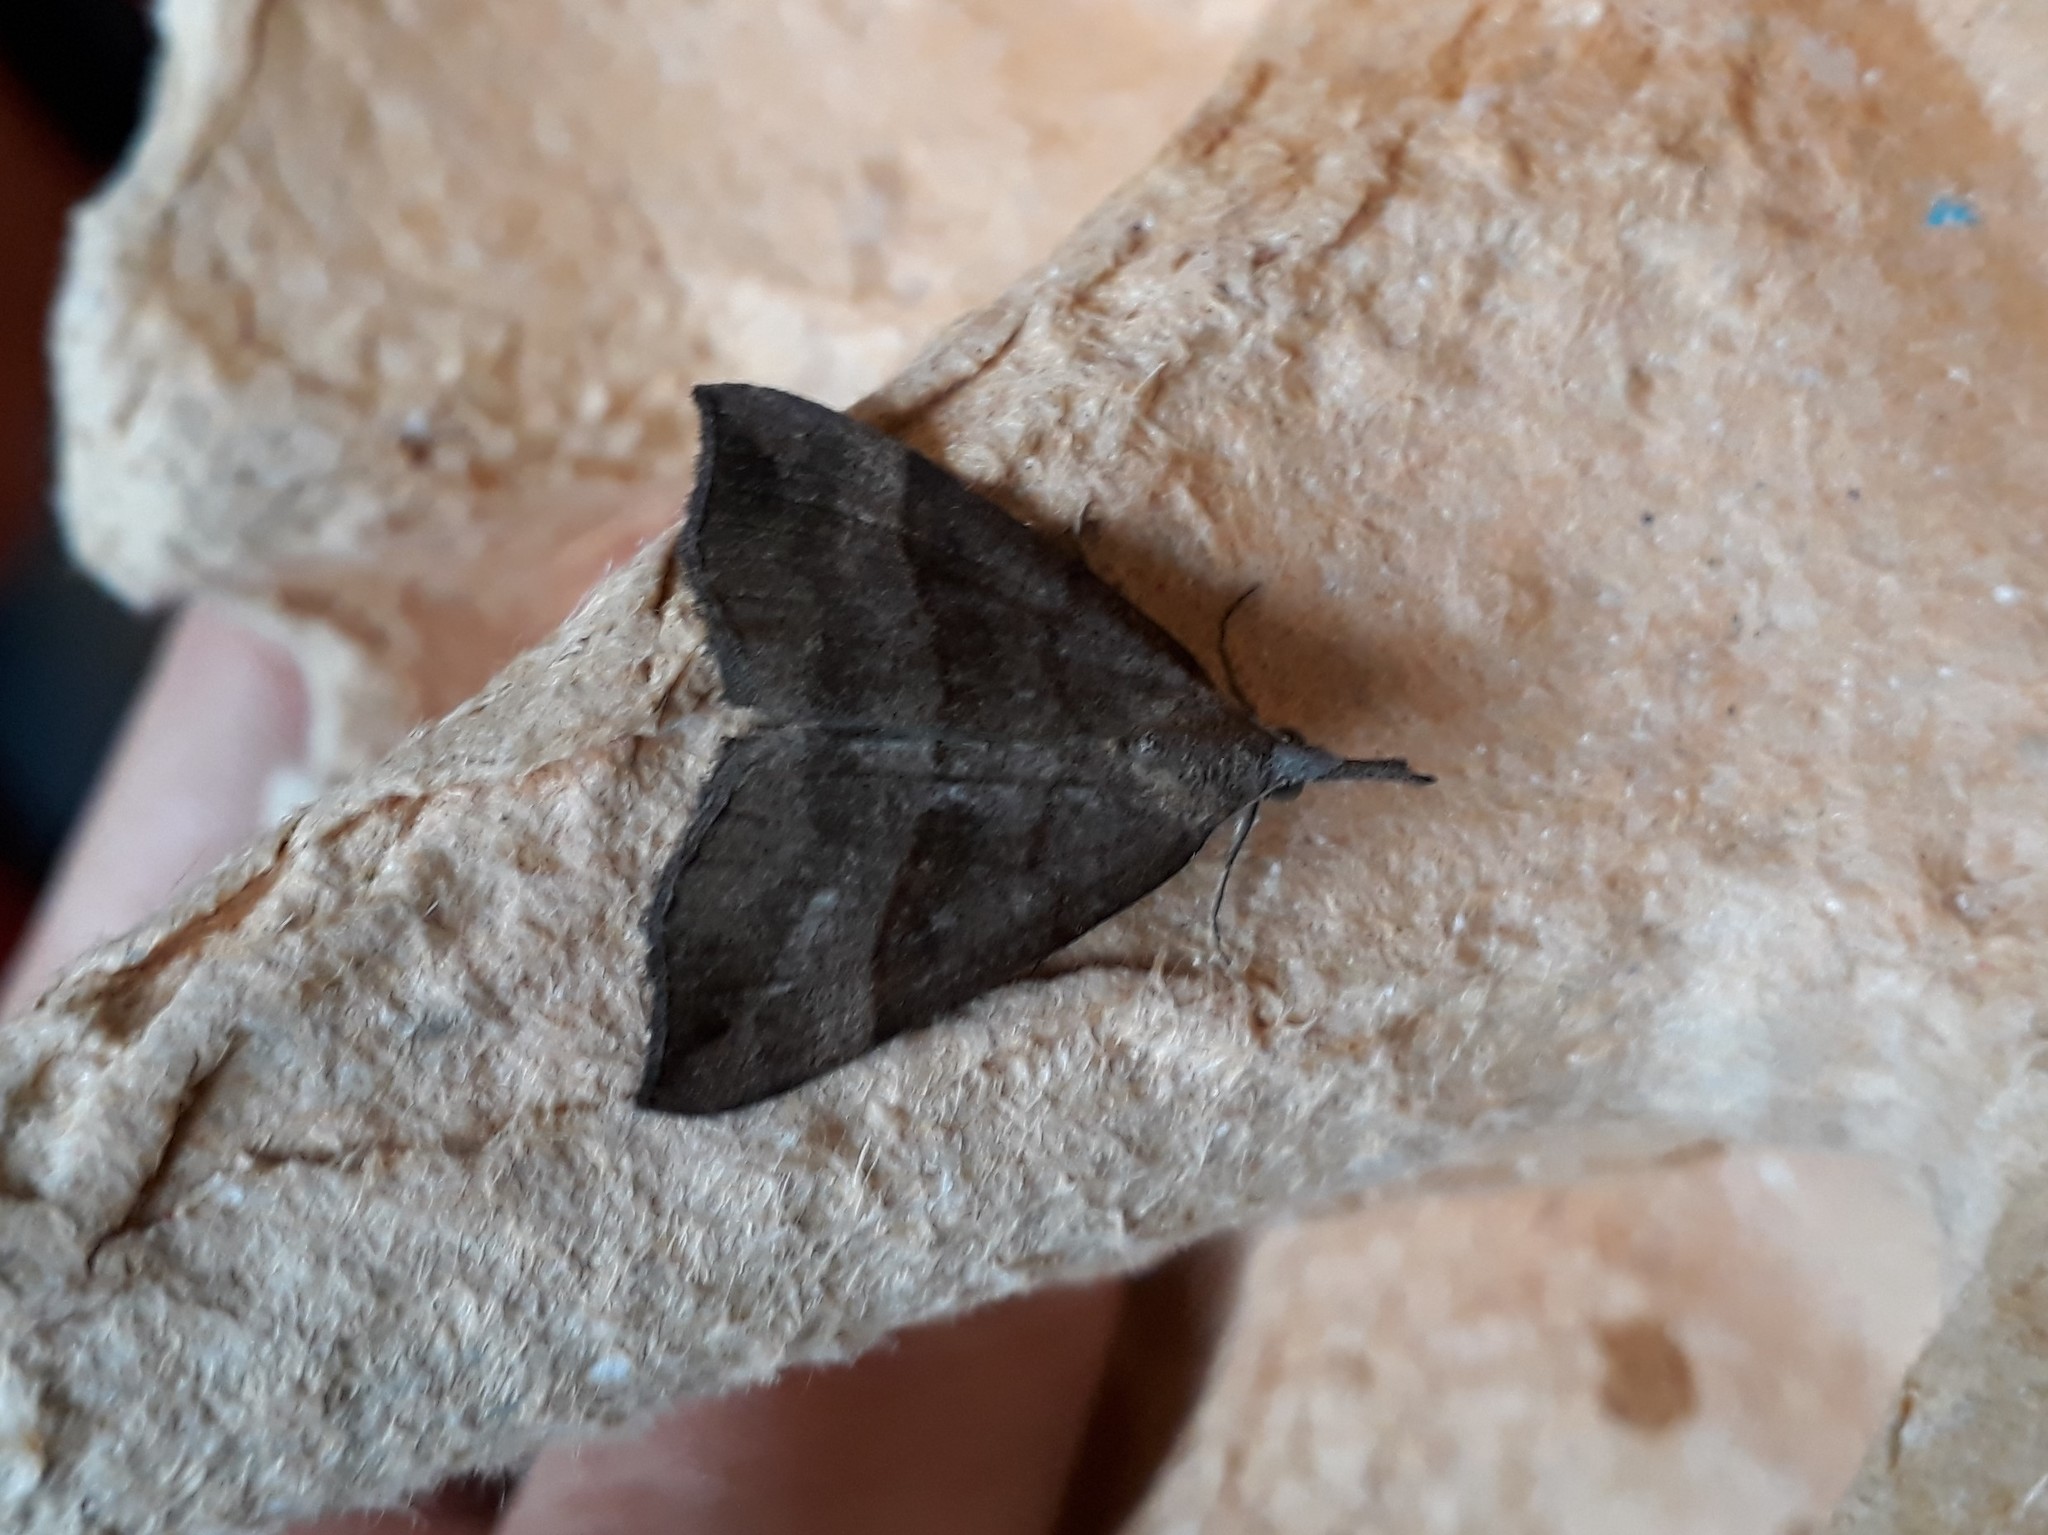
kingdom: Animalia
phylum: Arthropoda
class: Insecta
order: Lepidoptera
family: Erebidae
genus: Hypena
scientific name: Hypena proboscidalis
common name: Snout
